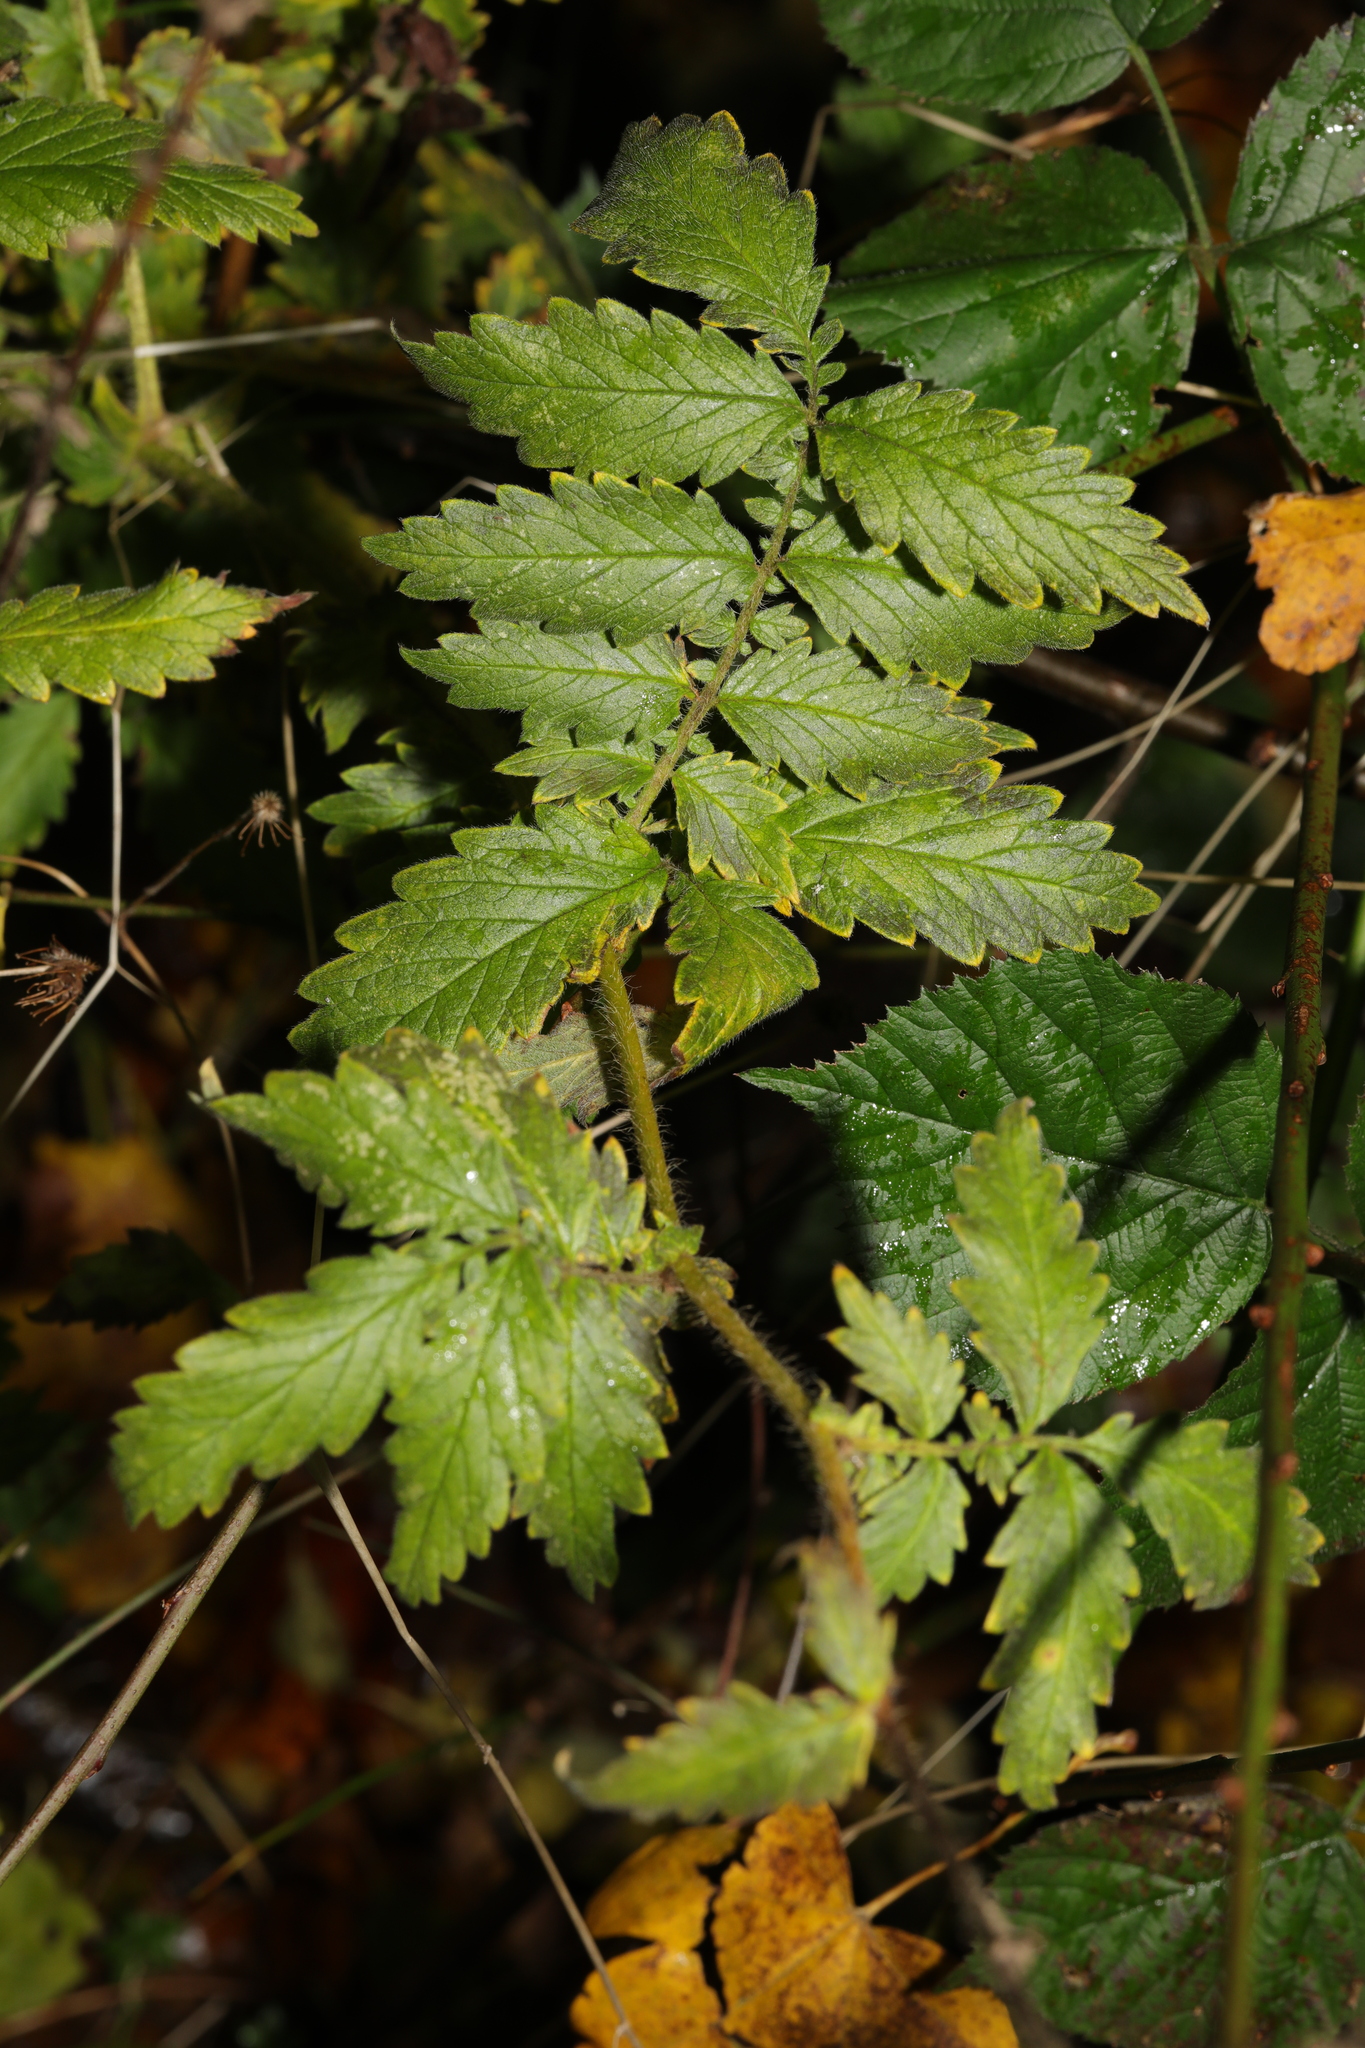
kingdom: Plantae
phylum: Tracheophyta
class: Magnoliopsida
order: Rosales
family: Rosaceae
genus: Agrimonia
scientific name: Agrimonia eupatoria
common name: Agrimony
